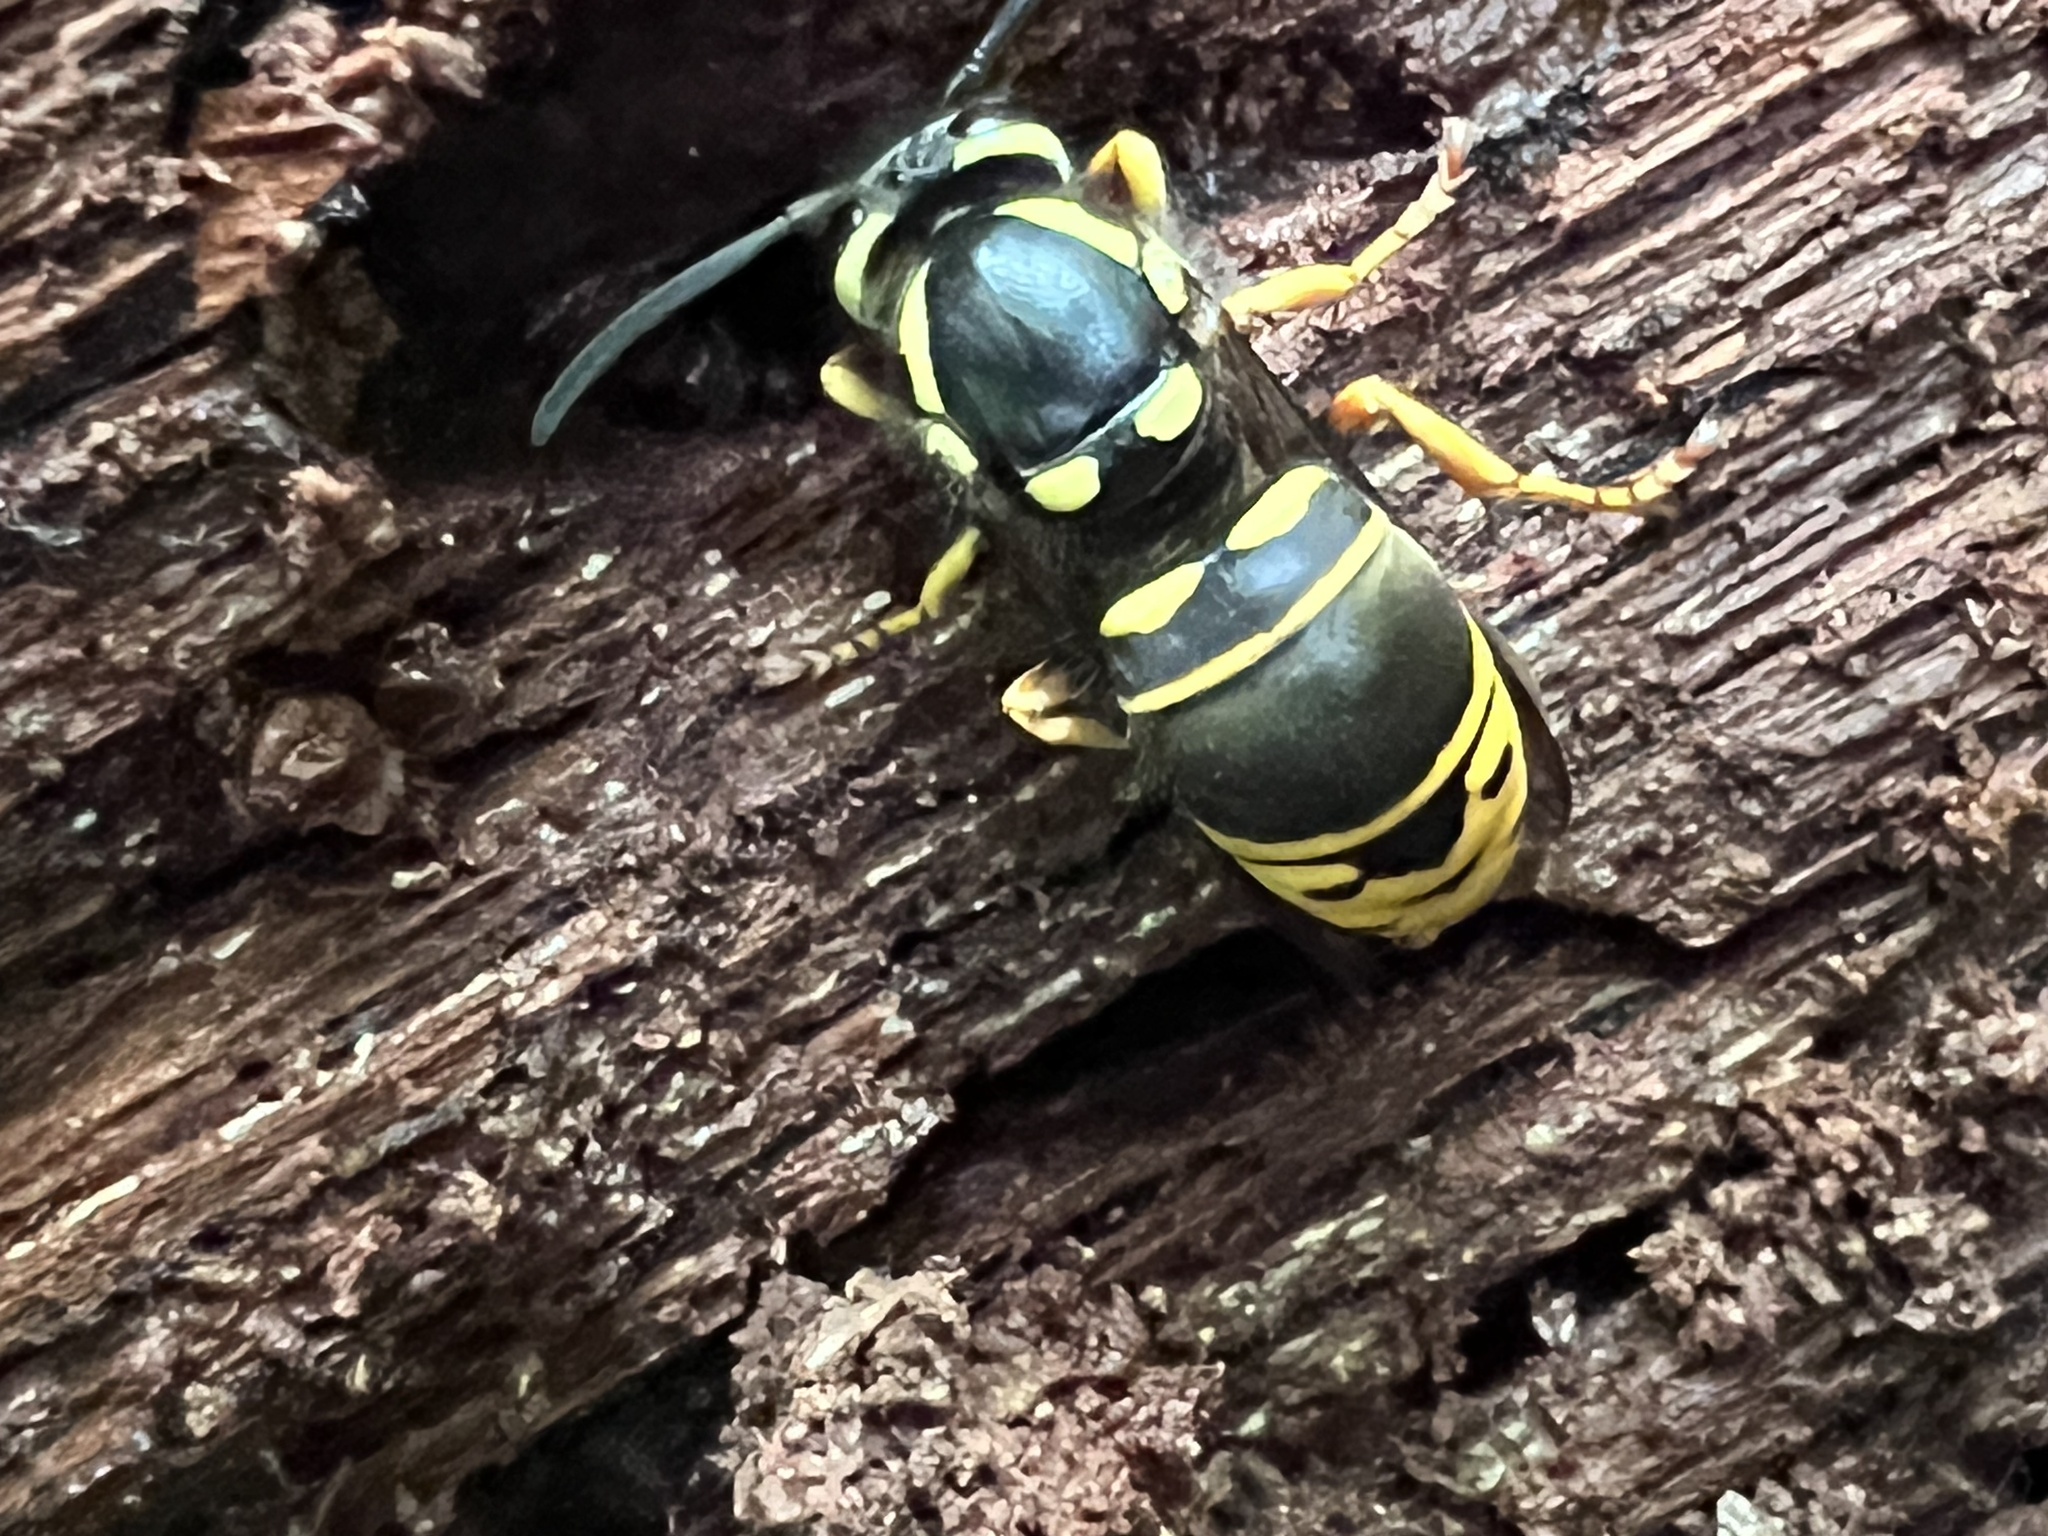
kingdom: Animalia
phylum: Arthropoda
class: Insecta
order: Hymenoptera
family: Vespidae
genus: Vespula
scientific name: Vespula vidua
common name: Widow yellowjacket
